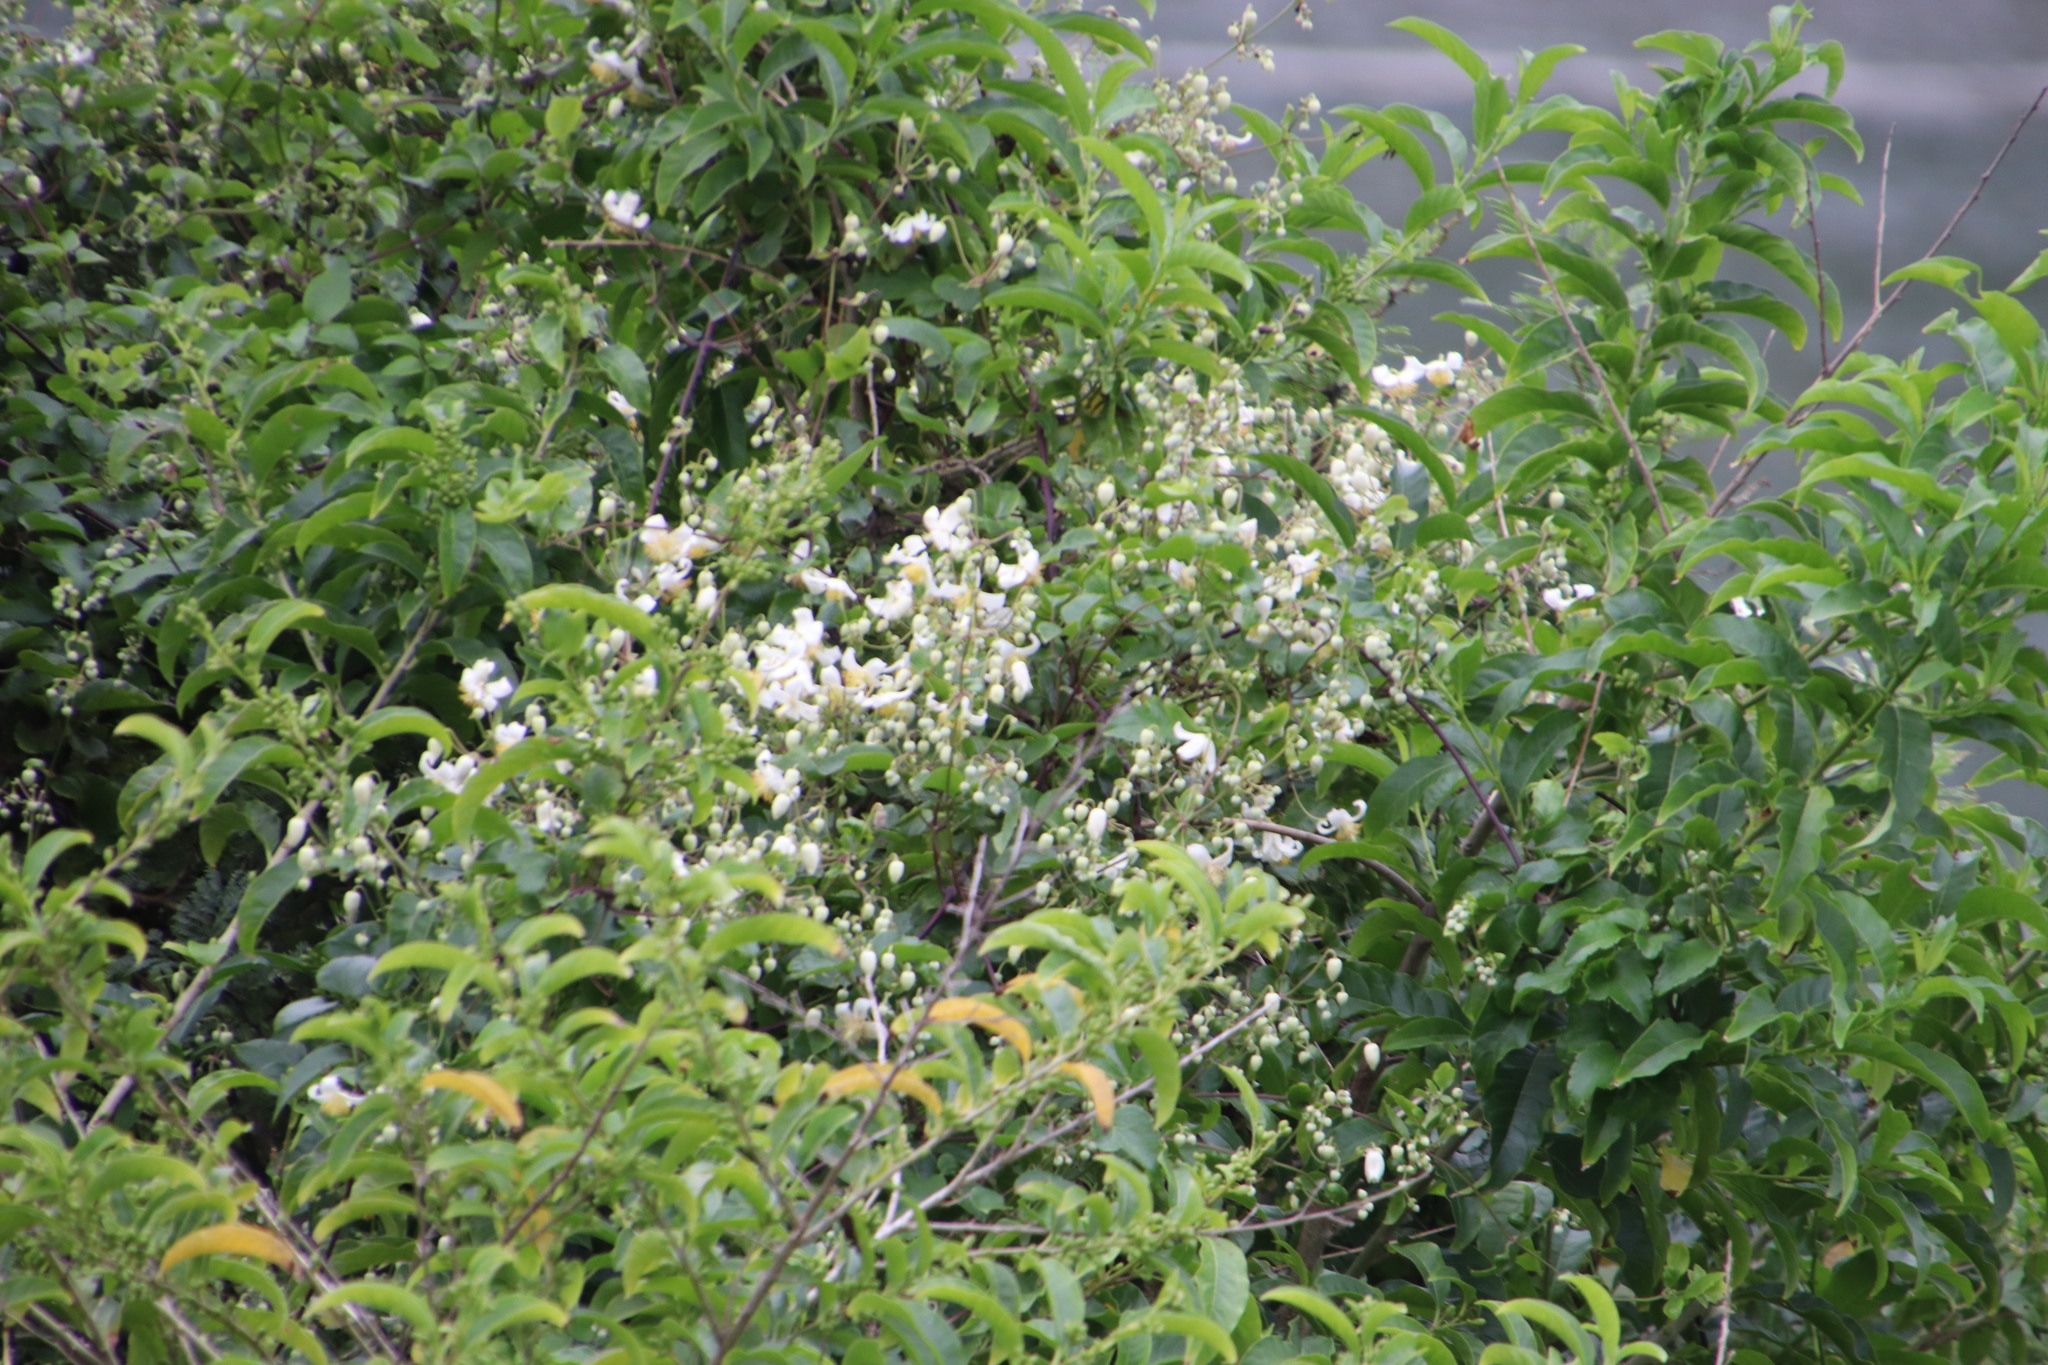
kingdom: Plantae
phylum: Tracheophyta
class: Magnoliopsida
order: Ranunculales
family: Ranunculaceae
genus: Clematis
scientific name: Clematis brachiata
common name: Traveler's-joy
